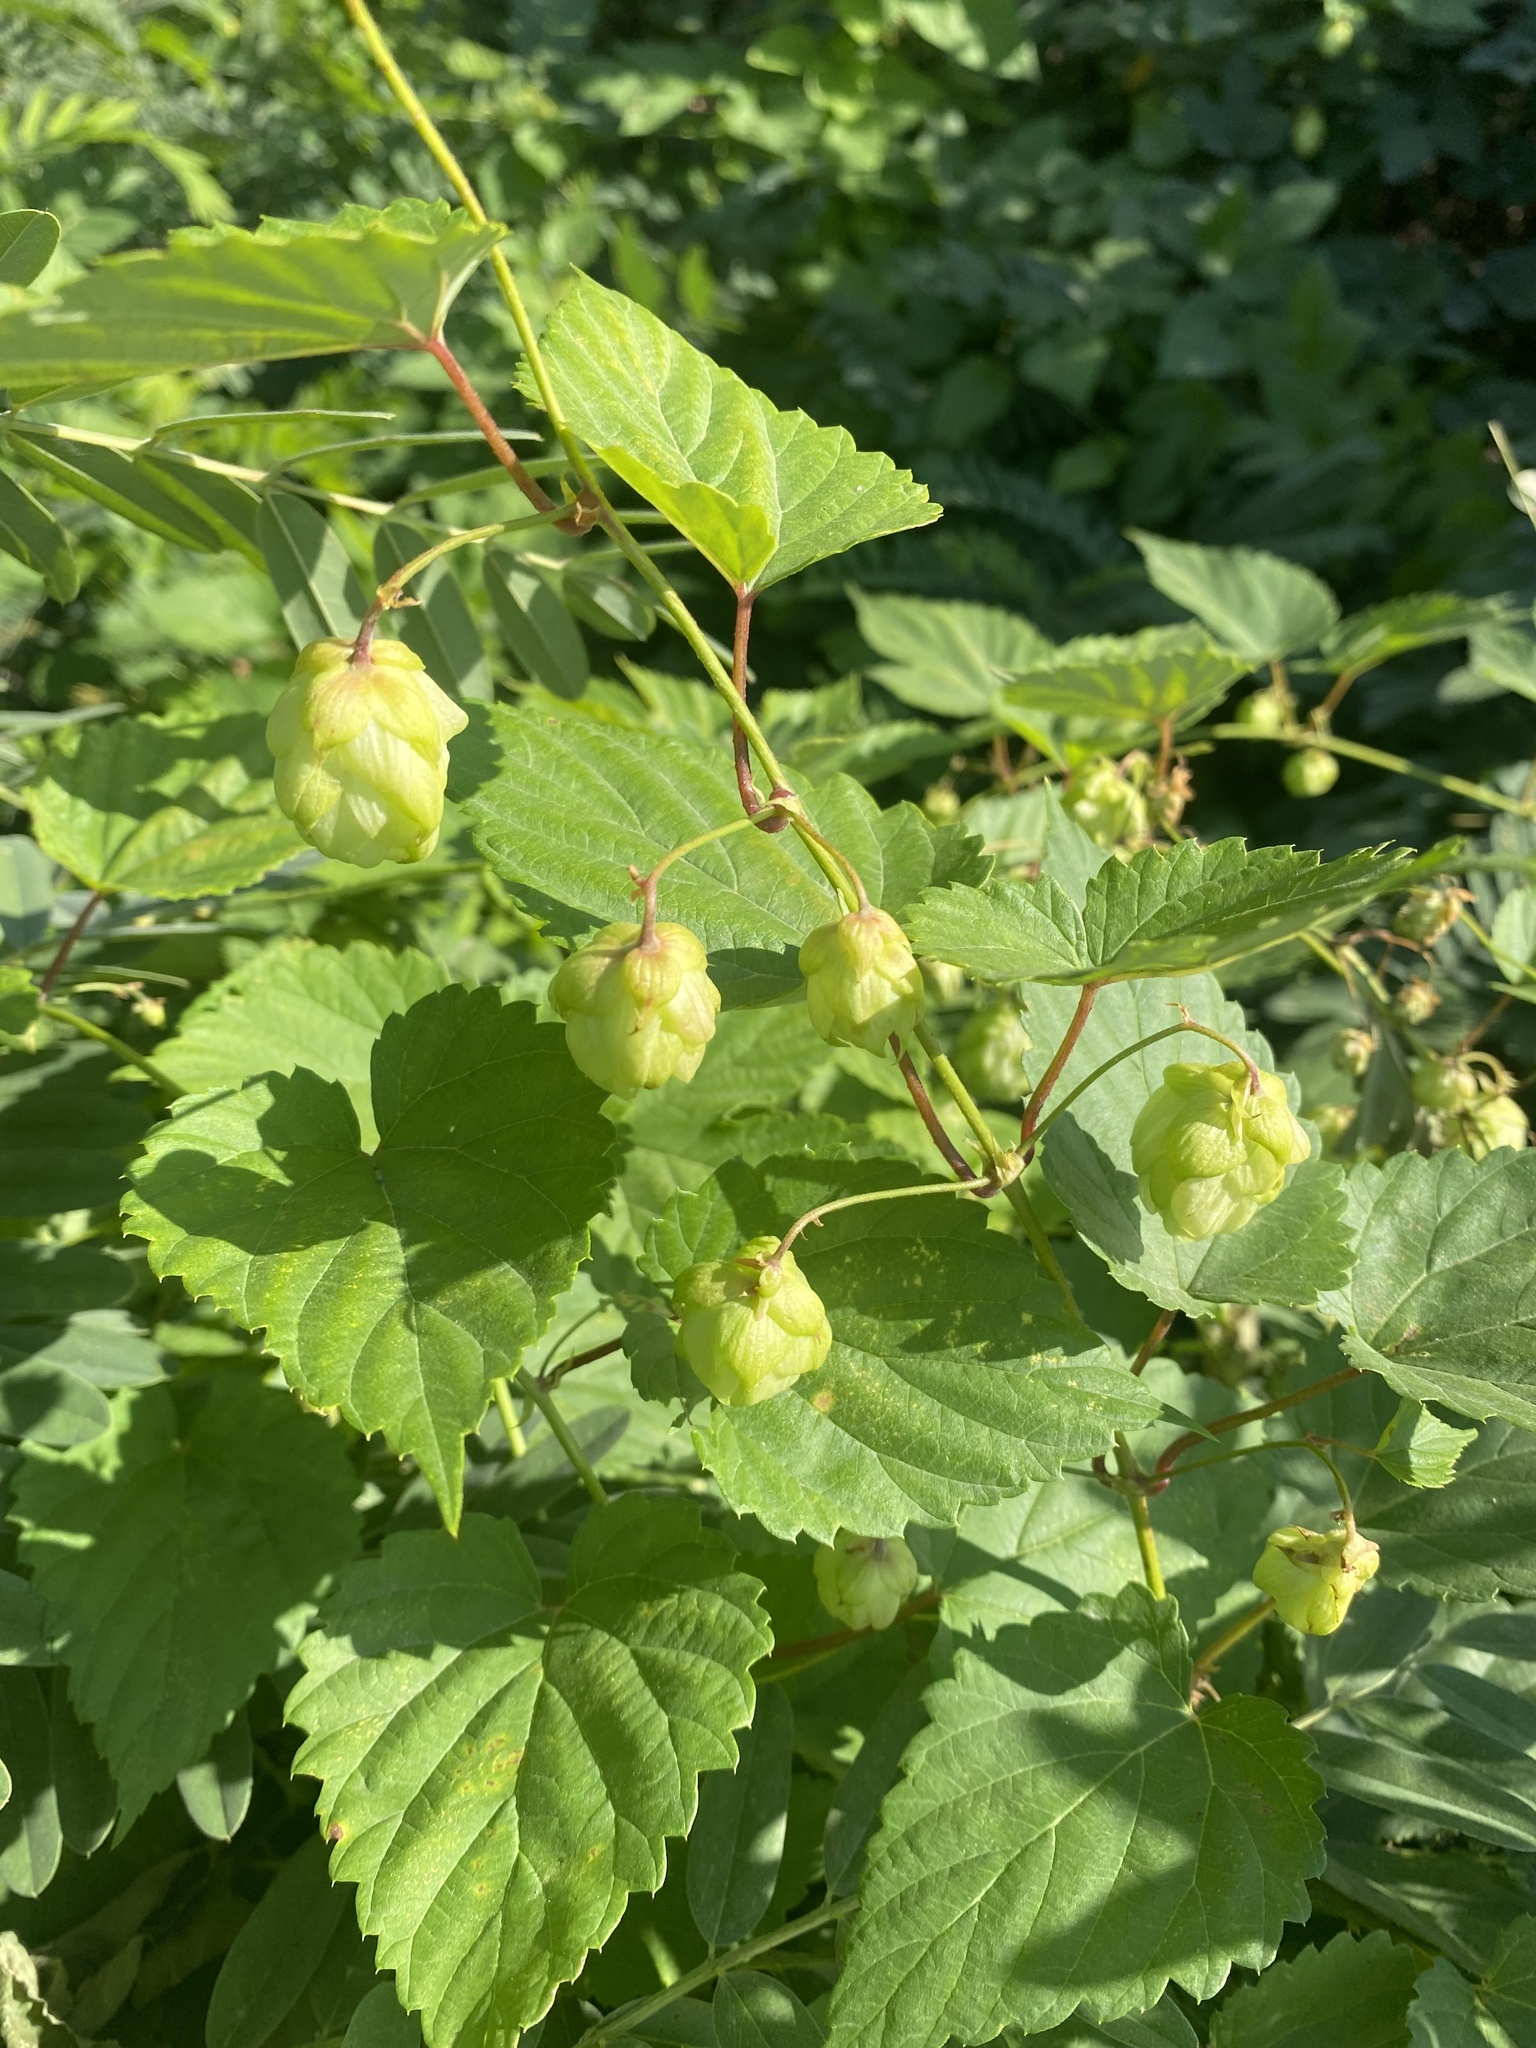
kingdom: Plantae
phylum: Tracheophyta
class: Magnoliopsida
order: Rosales
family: Cannabaceae
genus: Humulus
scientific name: Humulus lupulus
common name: Hop
